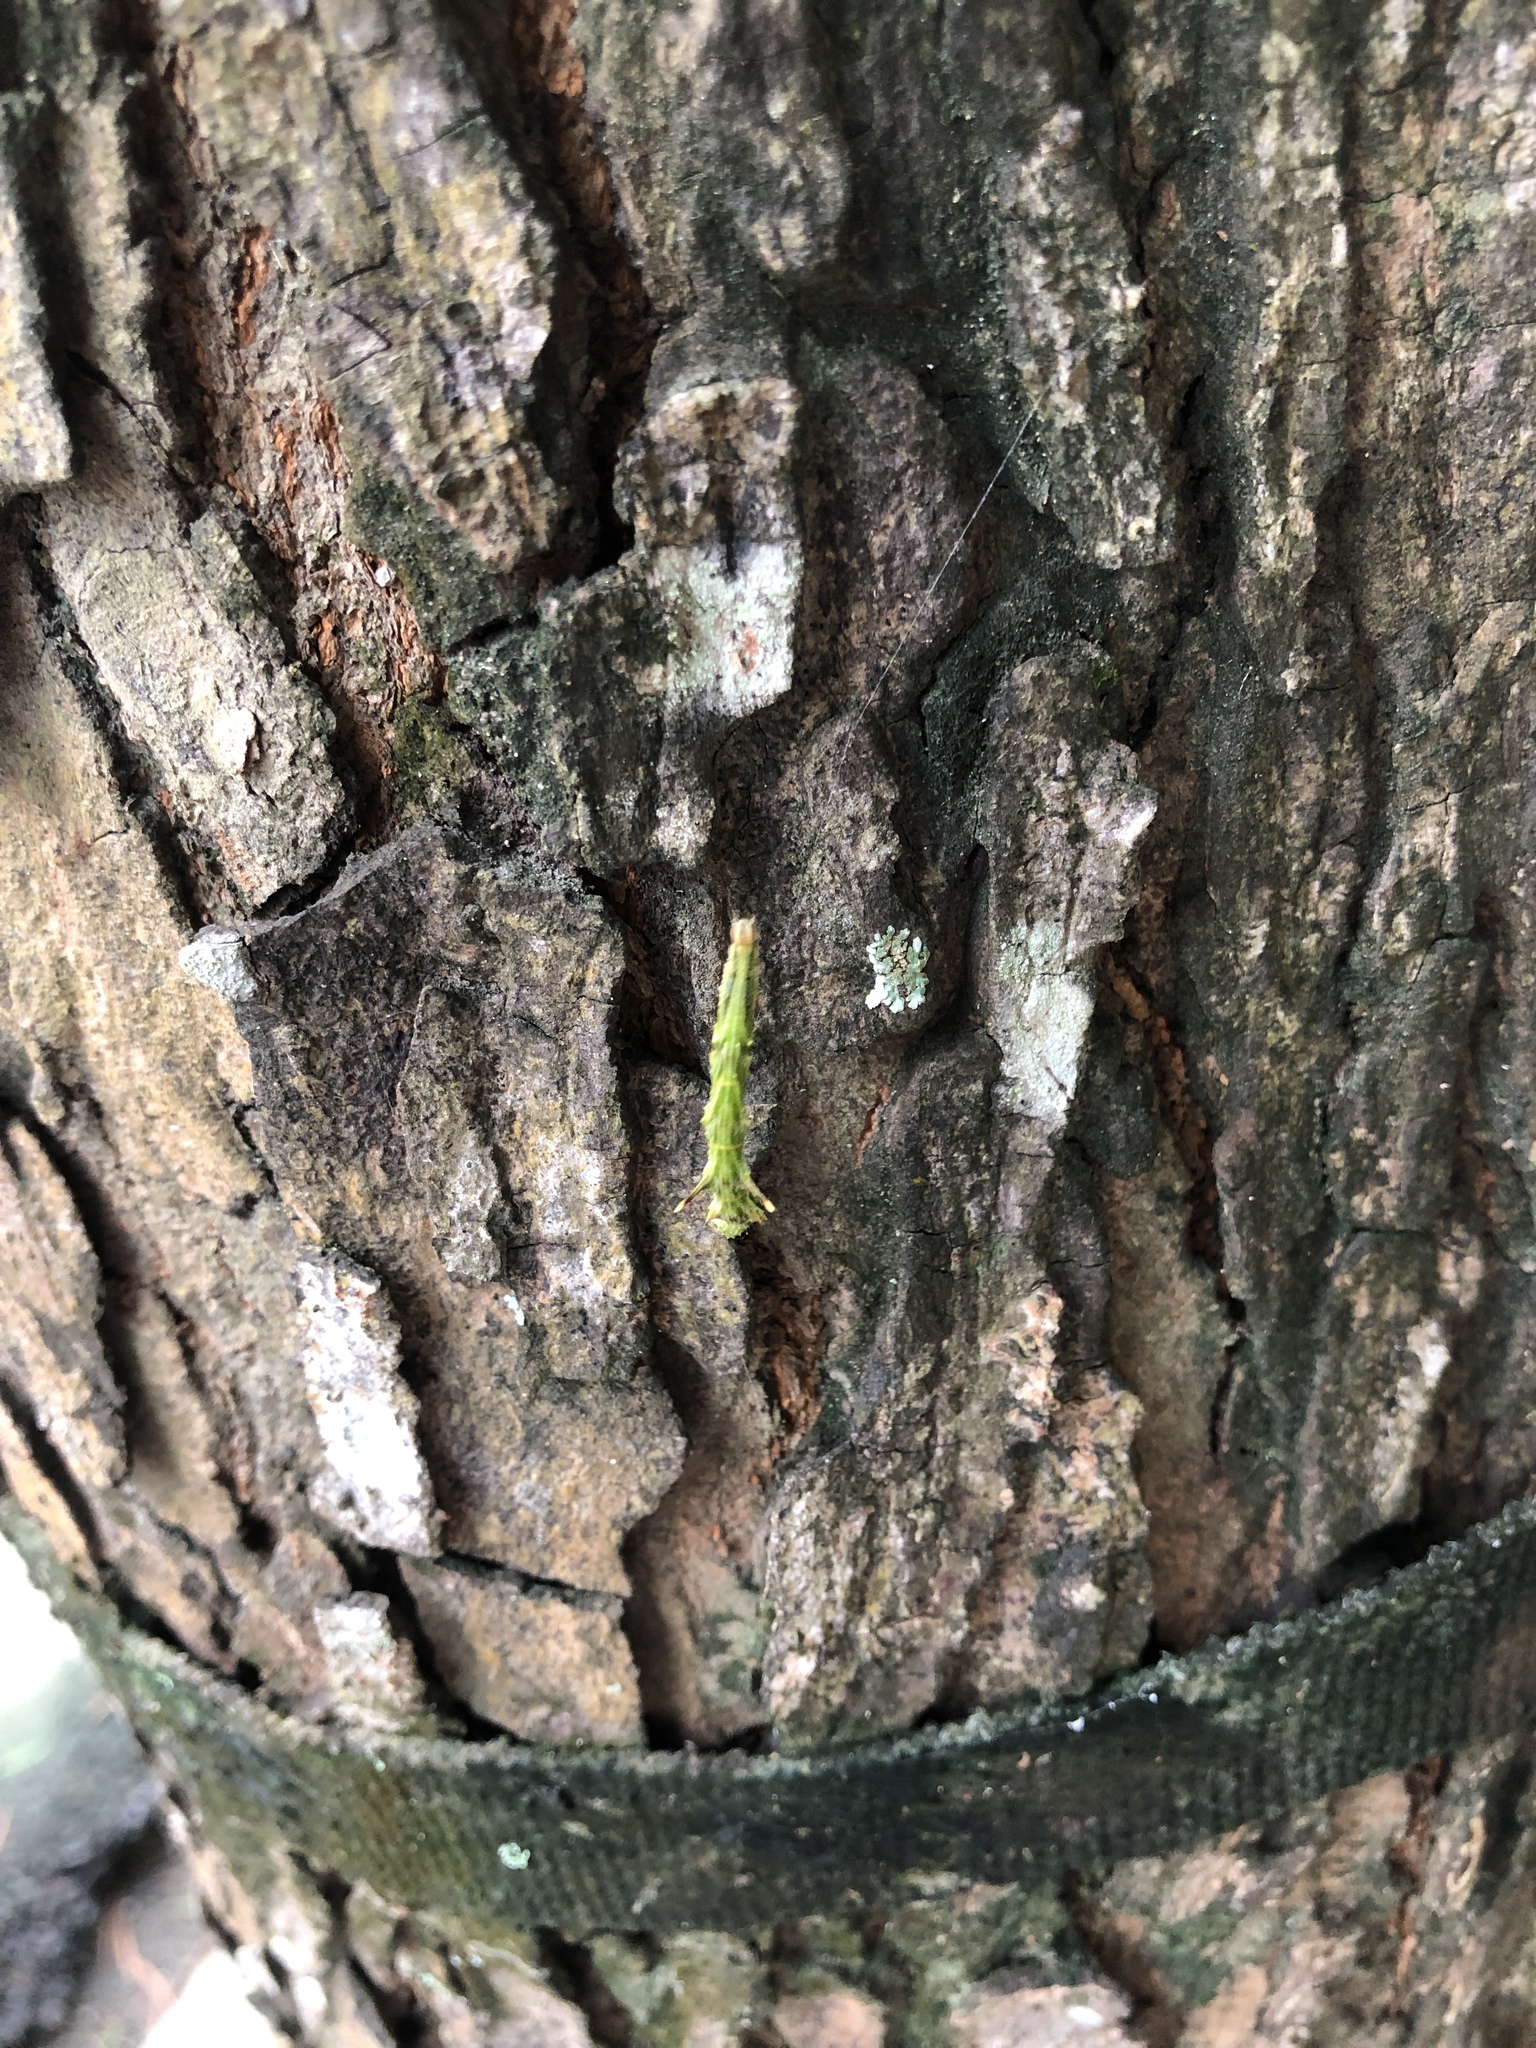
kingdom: Animalia
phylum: Arthropoda
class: Insecta
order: Lepidoptera
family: Geometridae
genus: Traminda
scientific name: Traminda aventiaria
